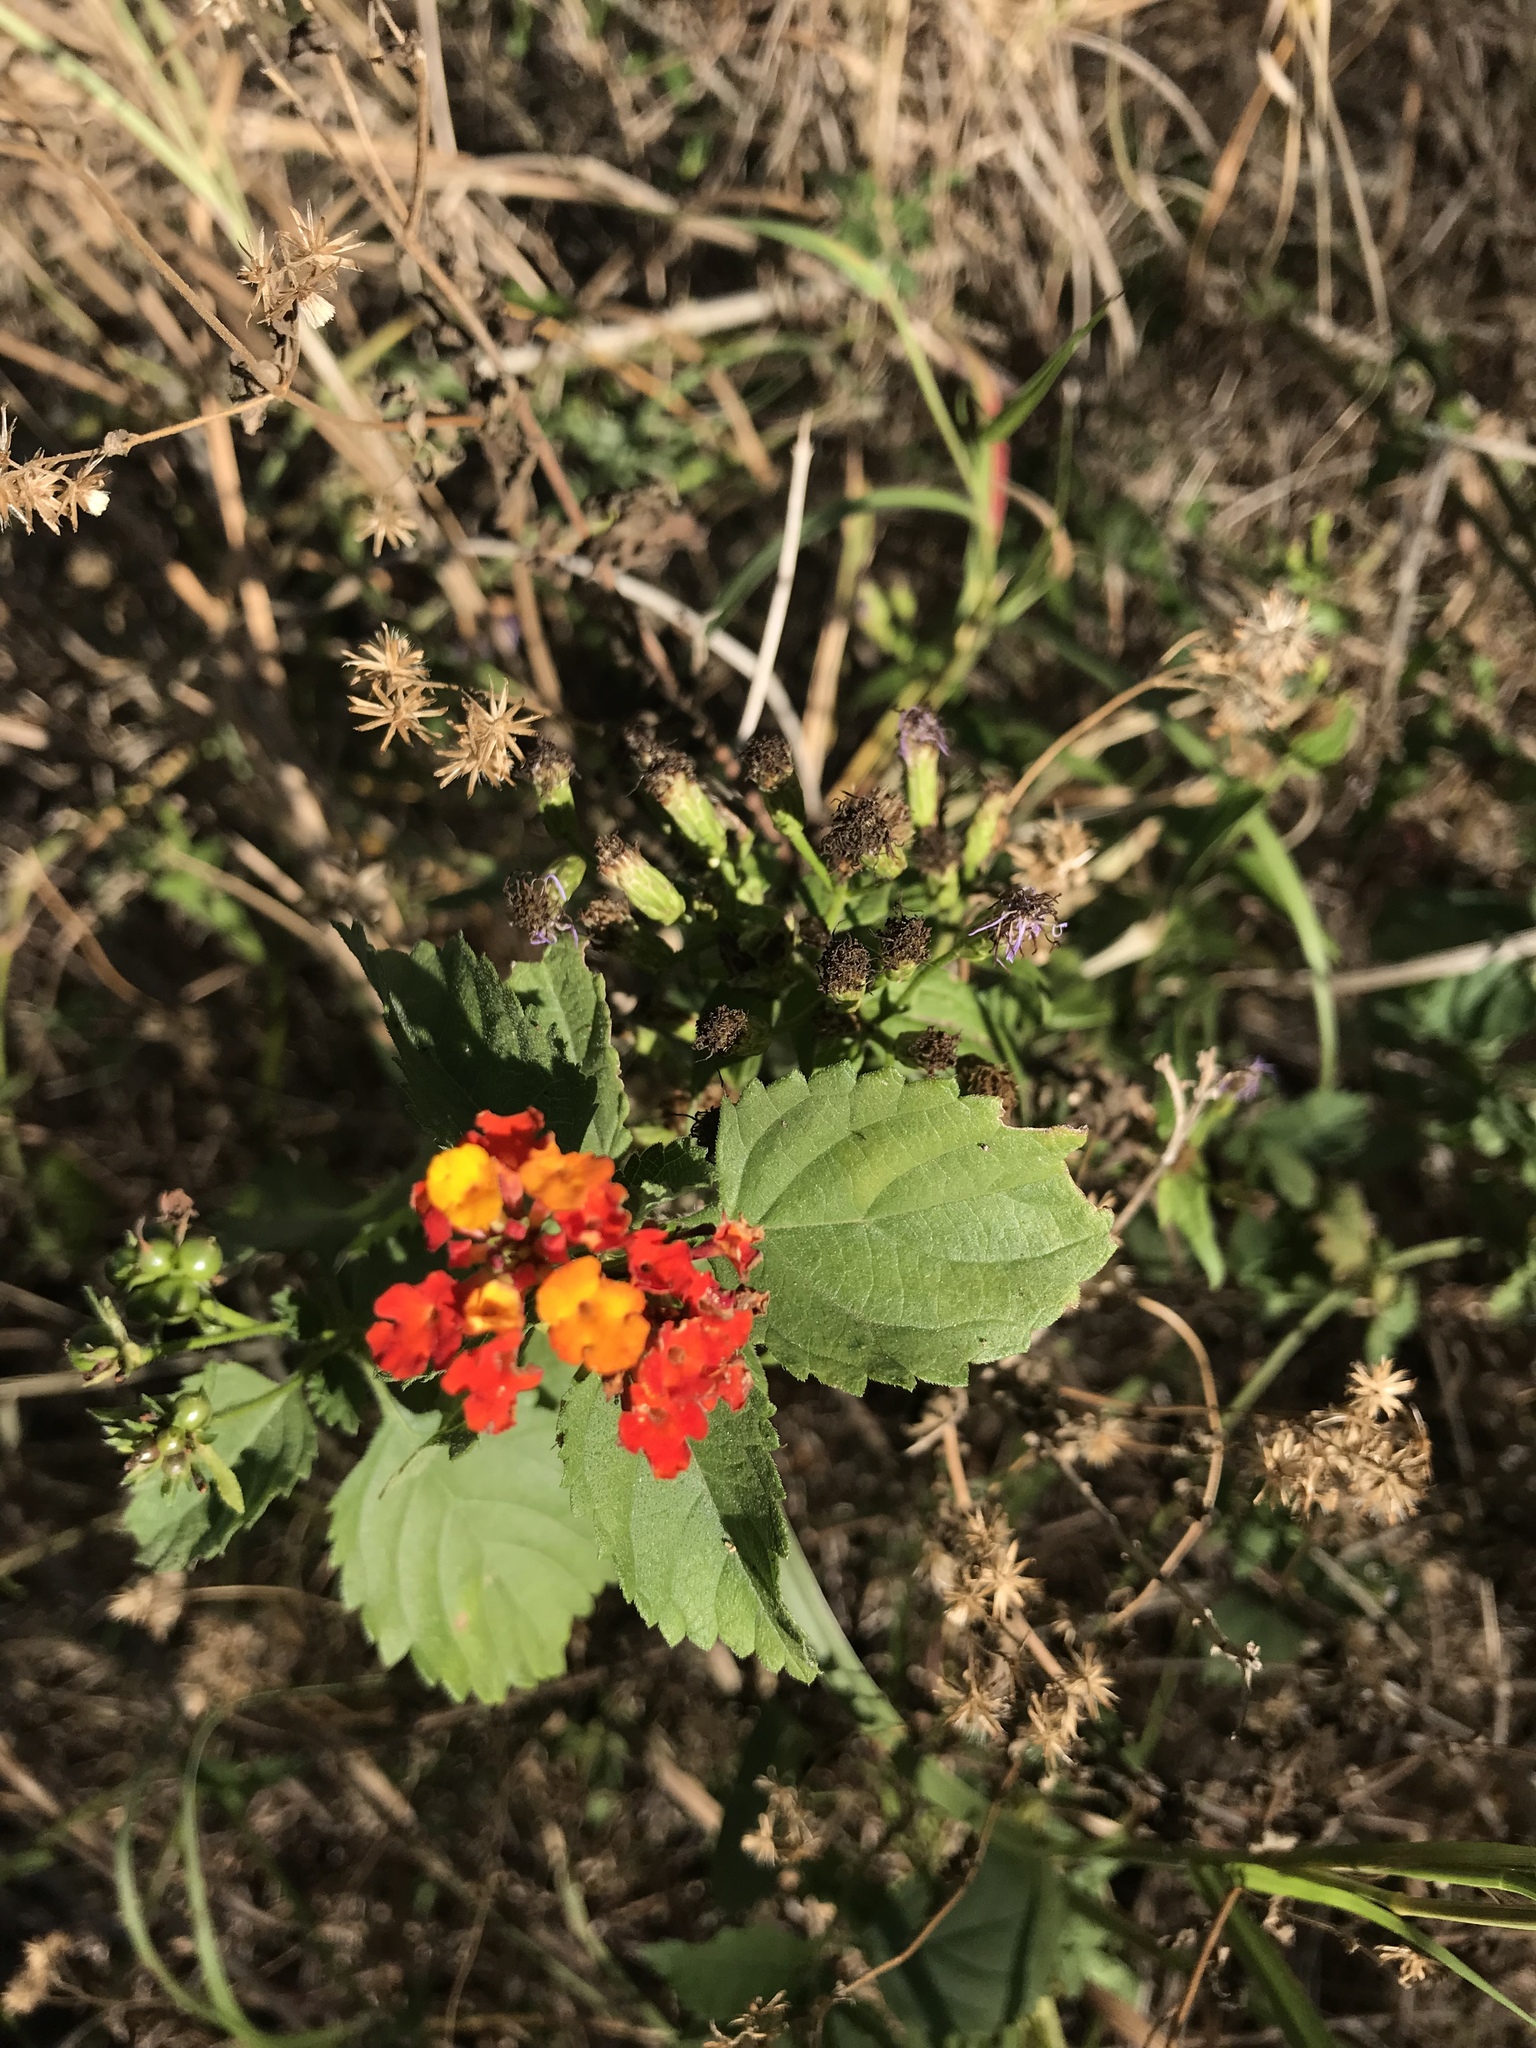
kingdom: Plantae
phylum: Tracheophyta
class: Magnoliopsida
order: Lamiales
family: Verbenaceae
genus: Lantana
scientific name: Lantana urticoides
